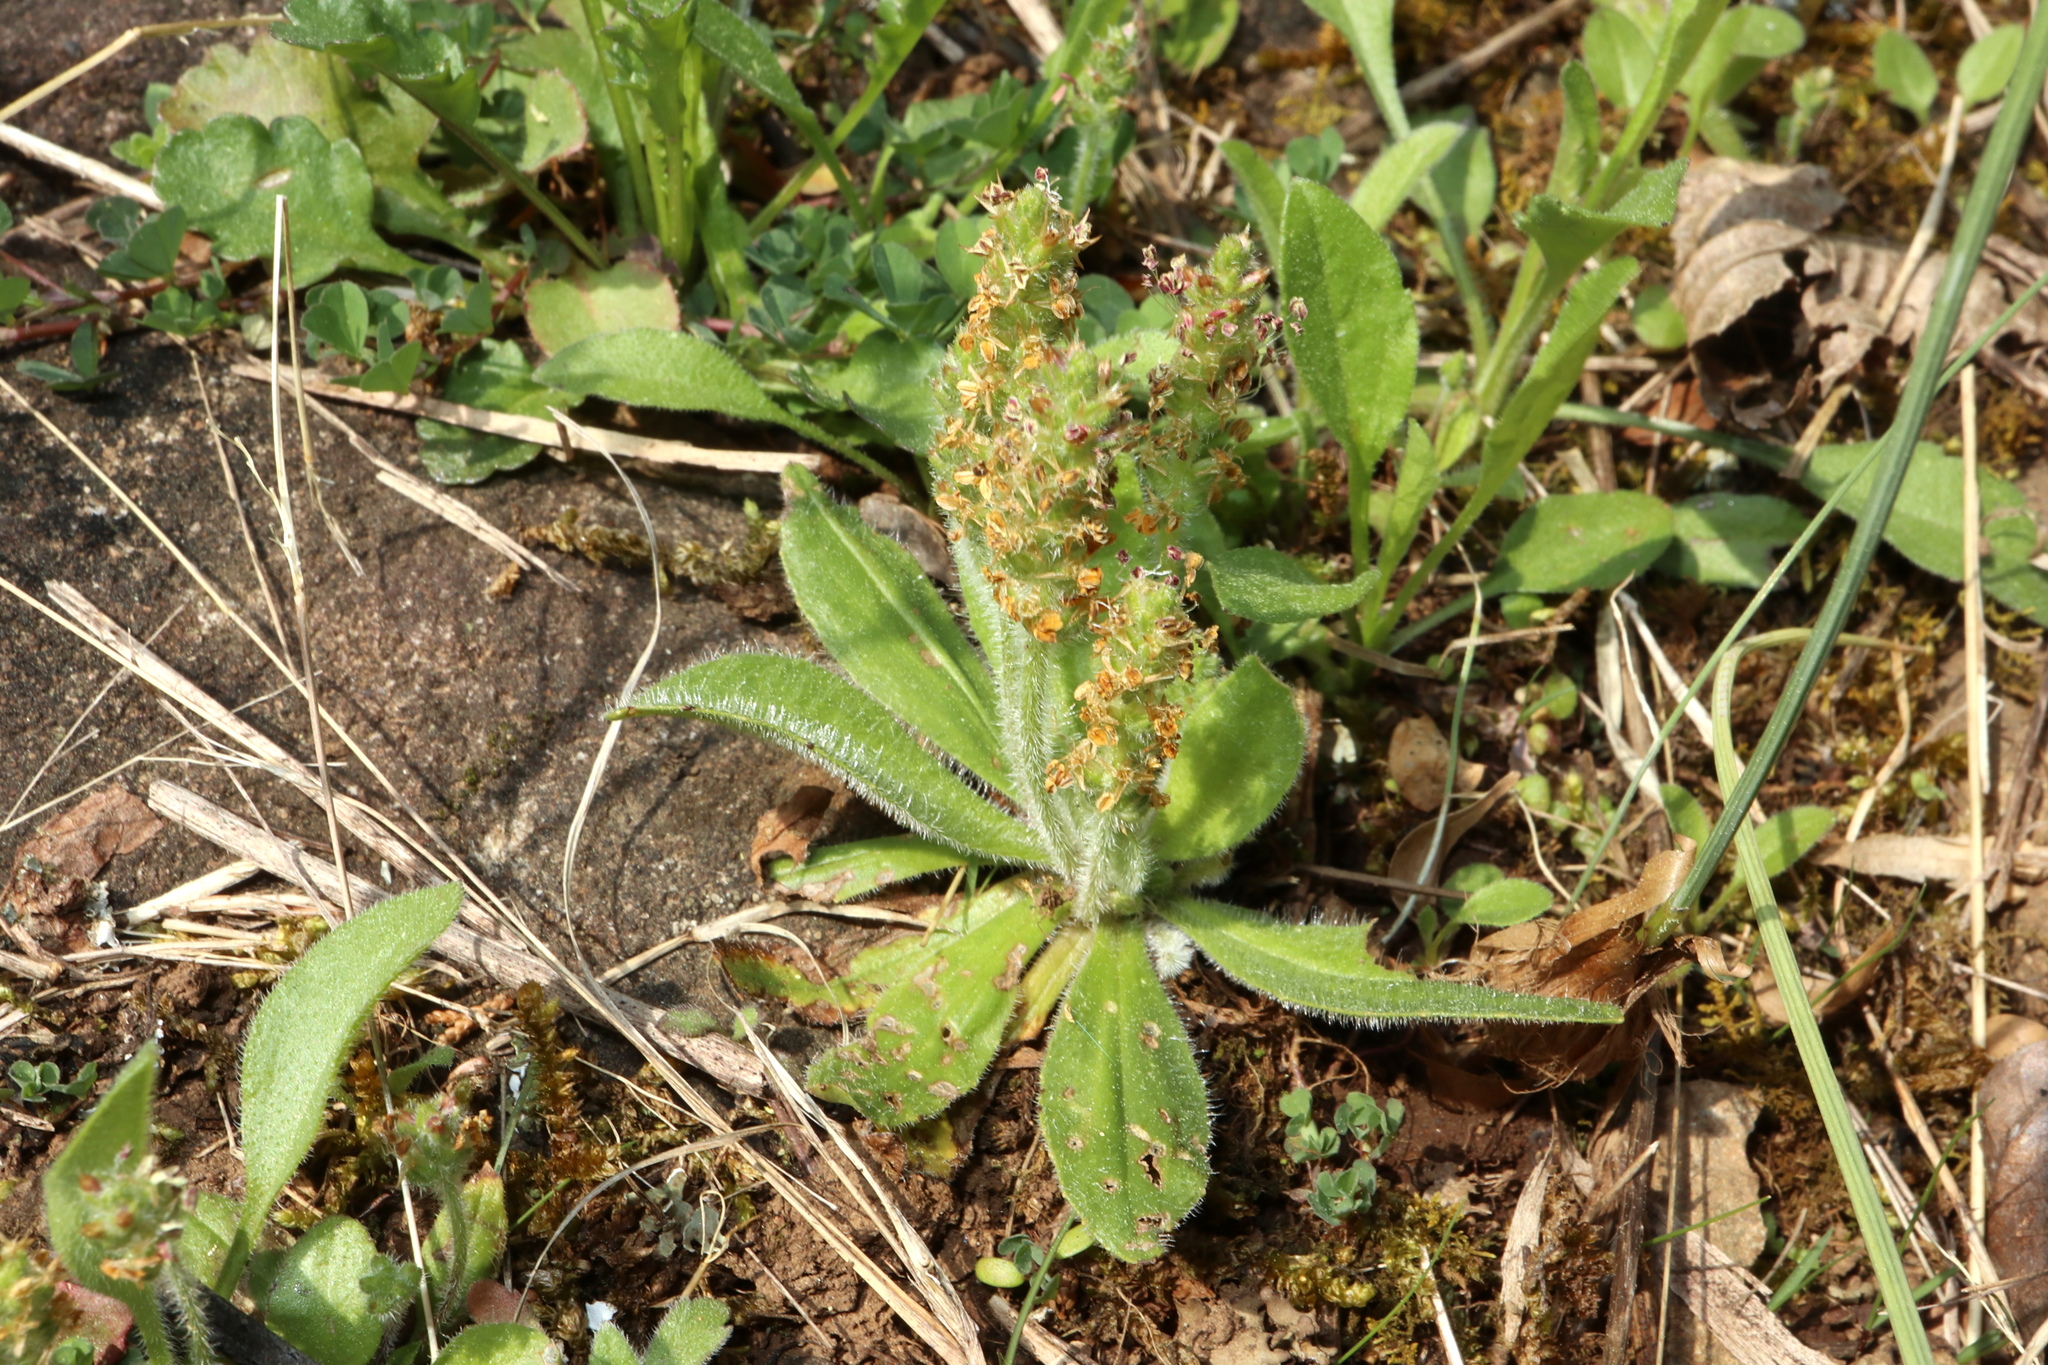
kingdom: Plantae
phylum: Tracheophyta
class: Magnoliopsida
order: Lamiales
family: Plantaginaceae
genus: Plantago
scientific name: Plantago virginica
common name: Hoary plantain
